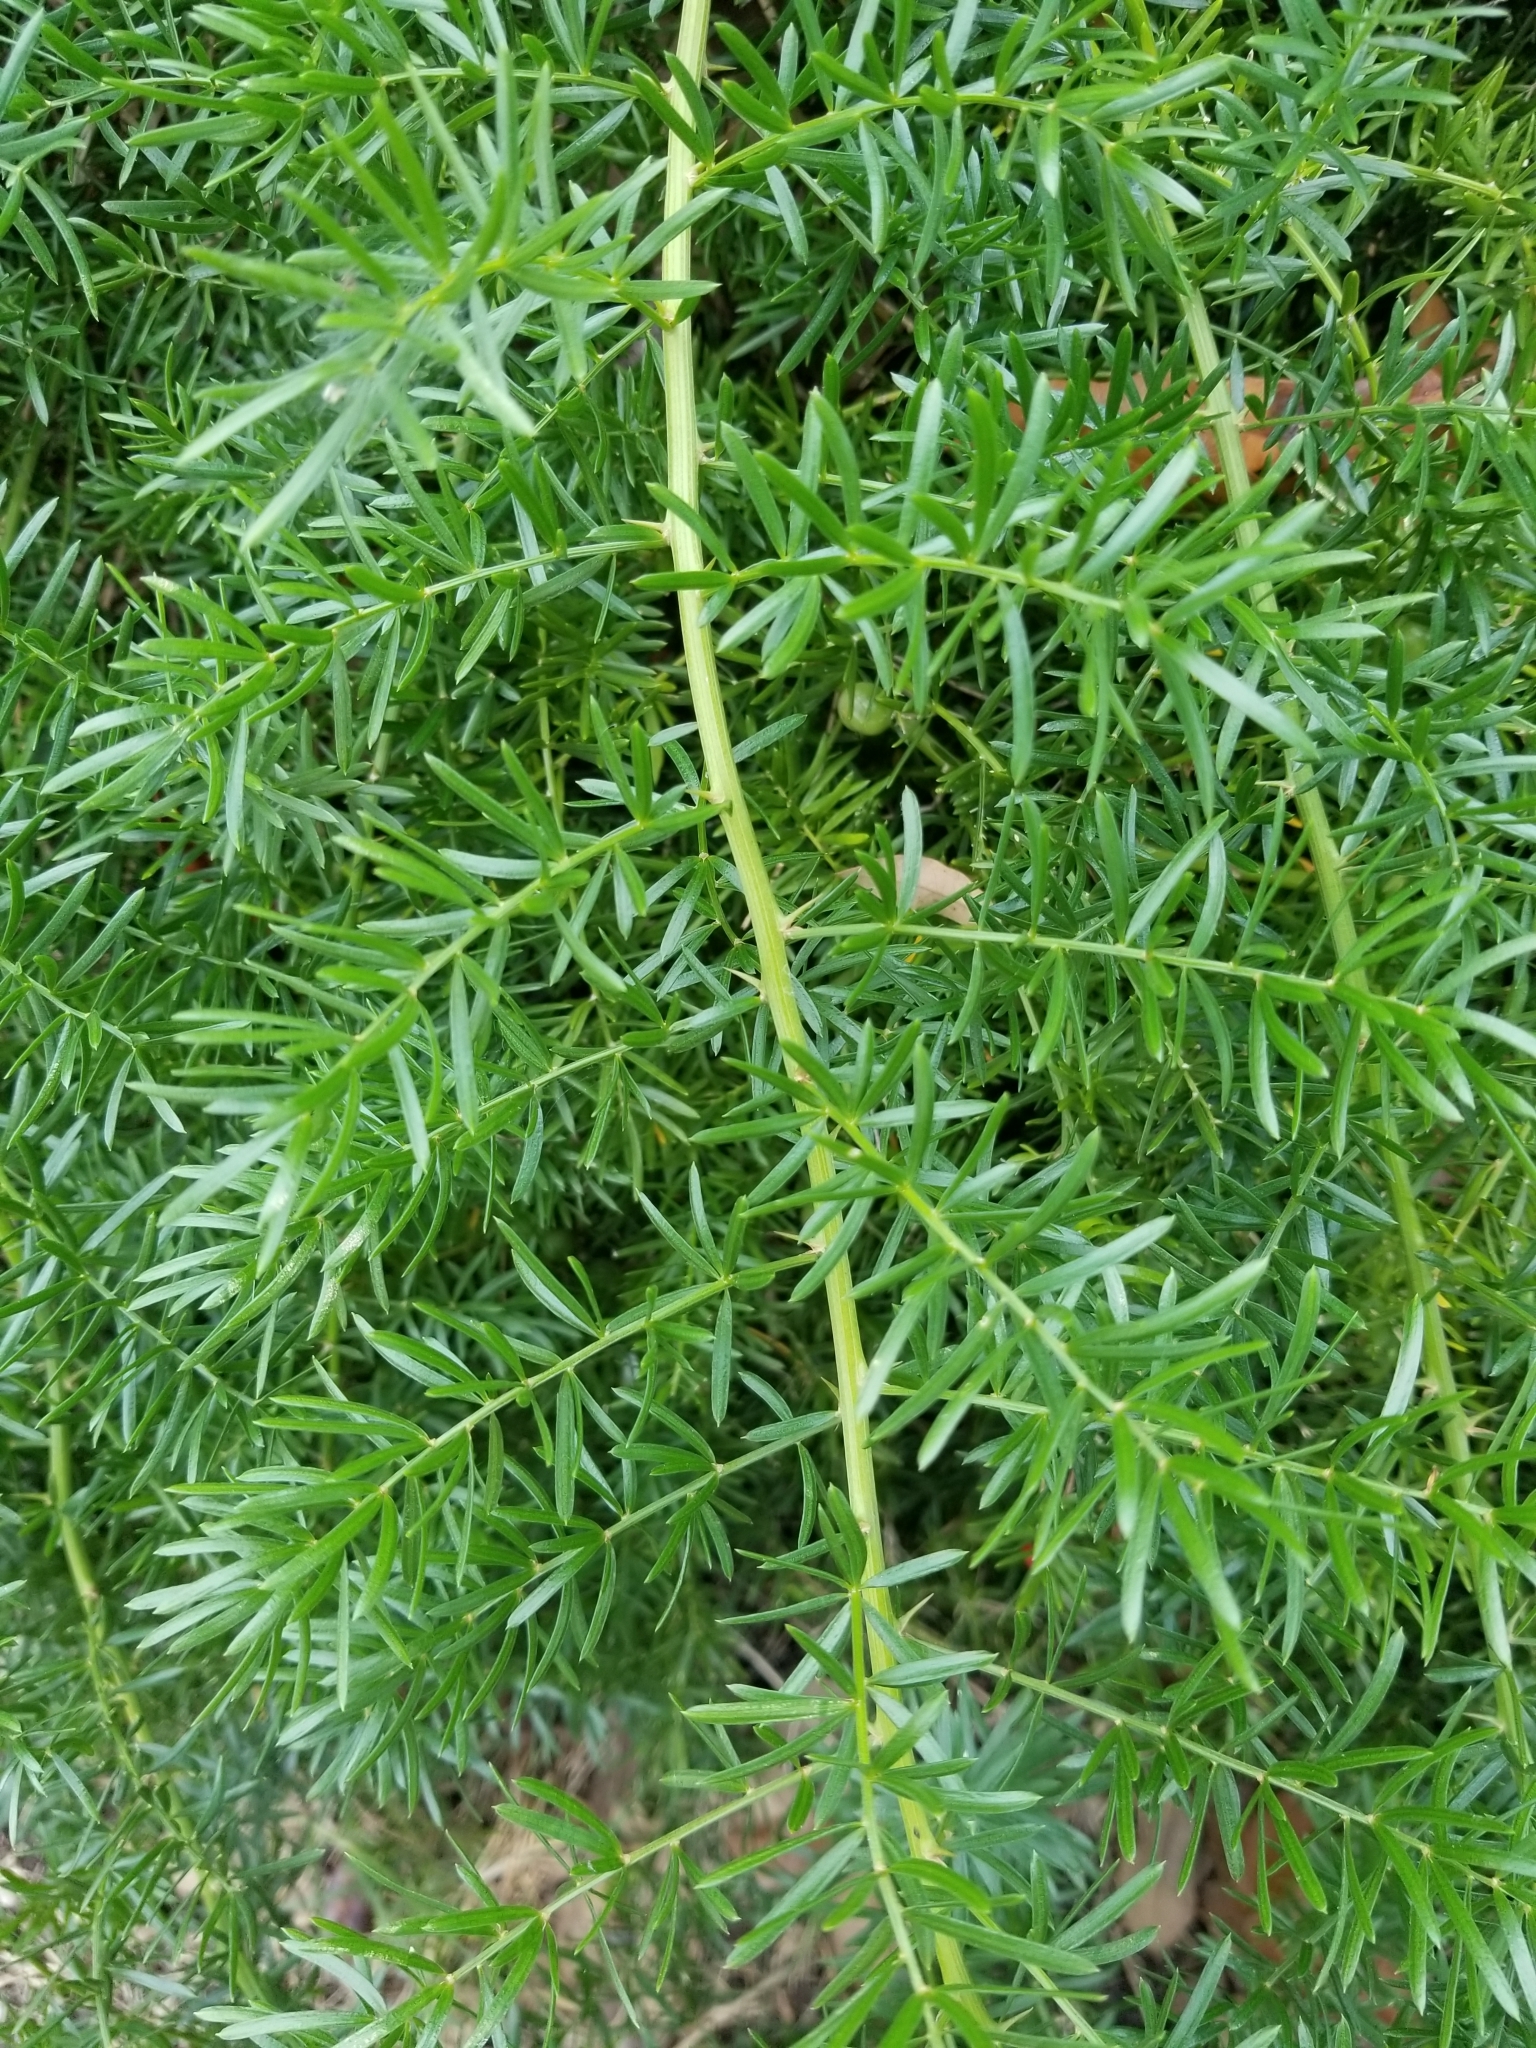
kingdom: Plantae
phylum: Tracheophyta
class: Liliopsida
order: Asparagales
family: Asparagaceae
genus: Asparagus
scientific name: Asparagus aethiopicus
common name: Sprenger's asparagus fern
